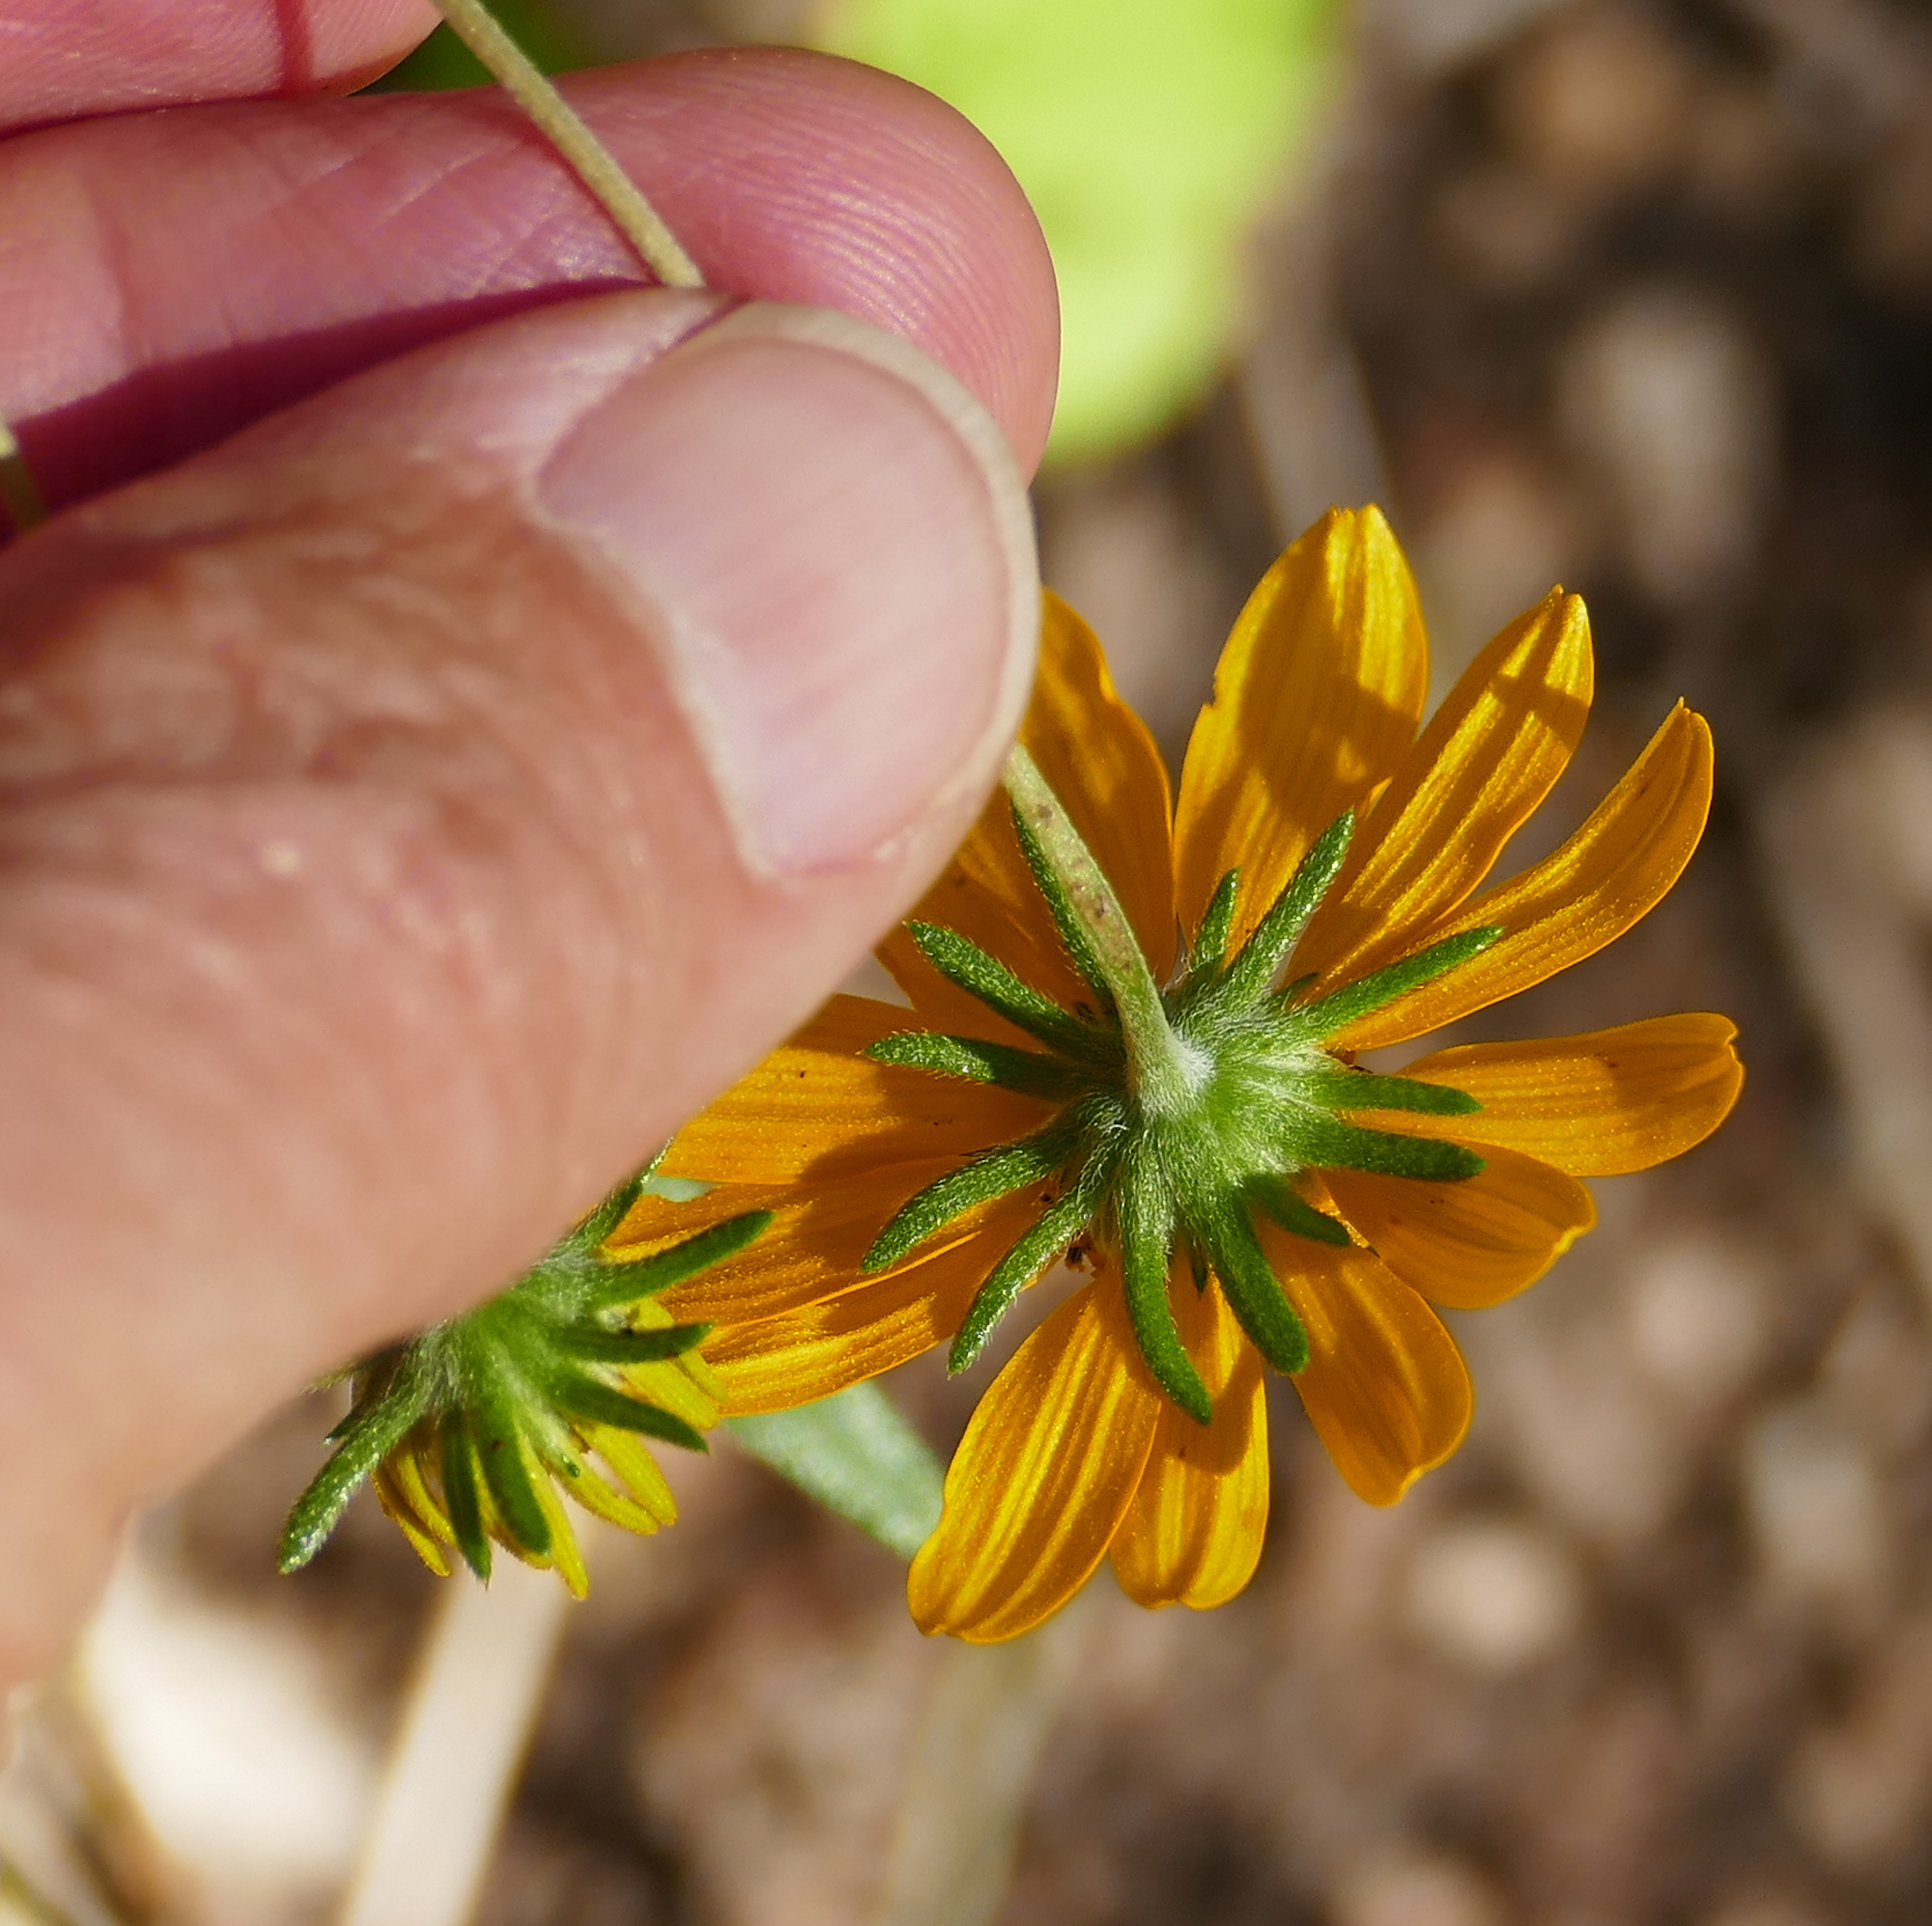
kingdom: Plantae
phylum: Tracheophyta
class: Magnoliopsida
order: Asterales
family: Asteraceae
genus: Heliomeris
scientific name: Heliomeris multiflora
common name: Showy goldeneye
